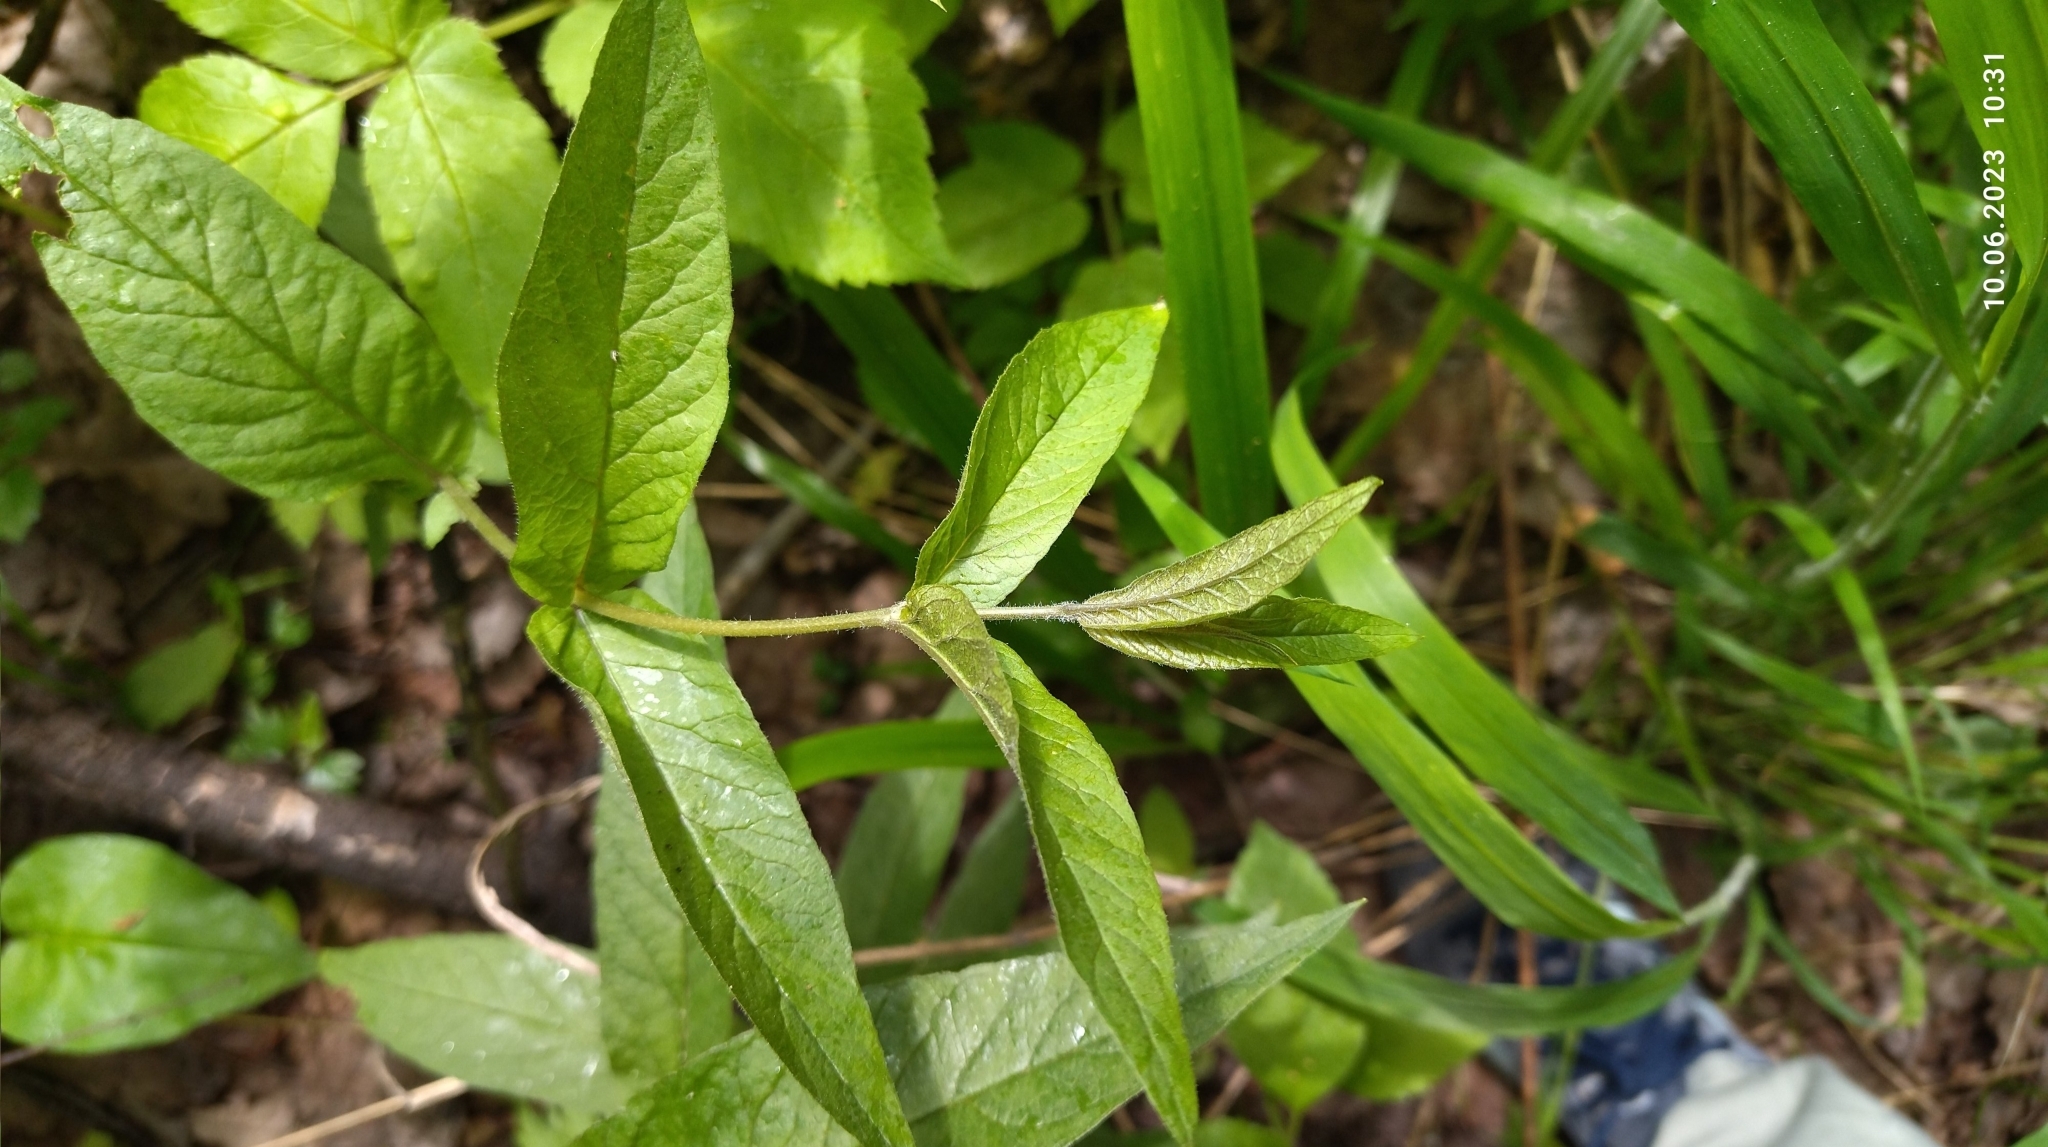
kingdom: Plantae
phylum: Tracheophyta
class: Magnoliopsida
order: Ericales
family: Primulaceae
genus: Lysimachia
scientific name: Lysimachia vulgaris
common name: Yellow loosestrife
